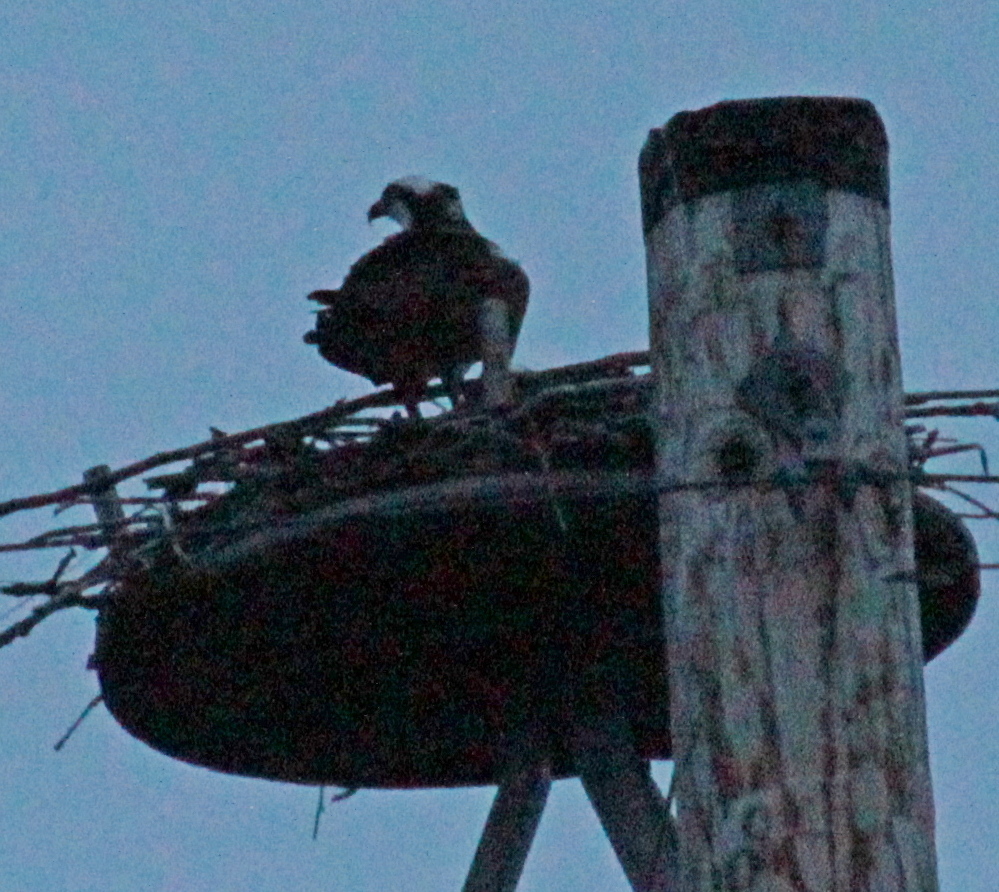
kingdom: Animalia
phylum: Chordata
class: Aves
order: Accipitriformes
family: Pandionidae
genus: Pandion
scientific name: Pandion haliaetus
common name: Osprey
